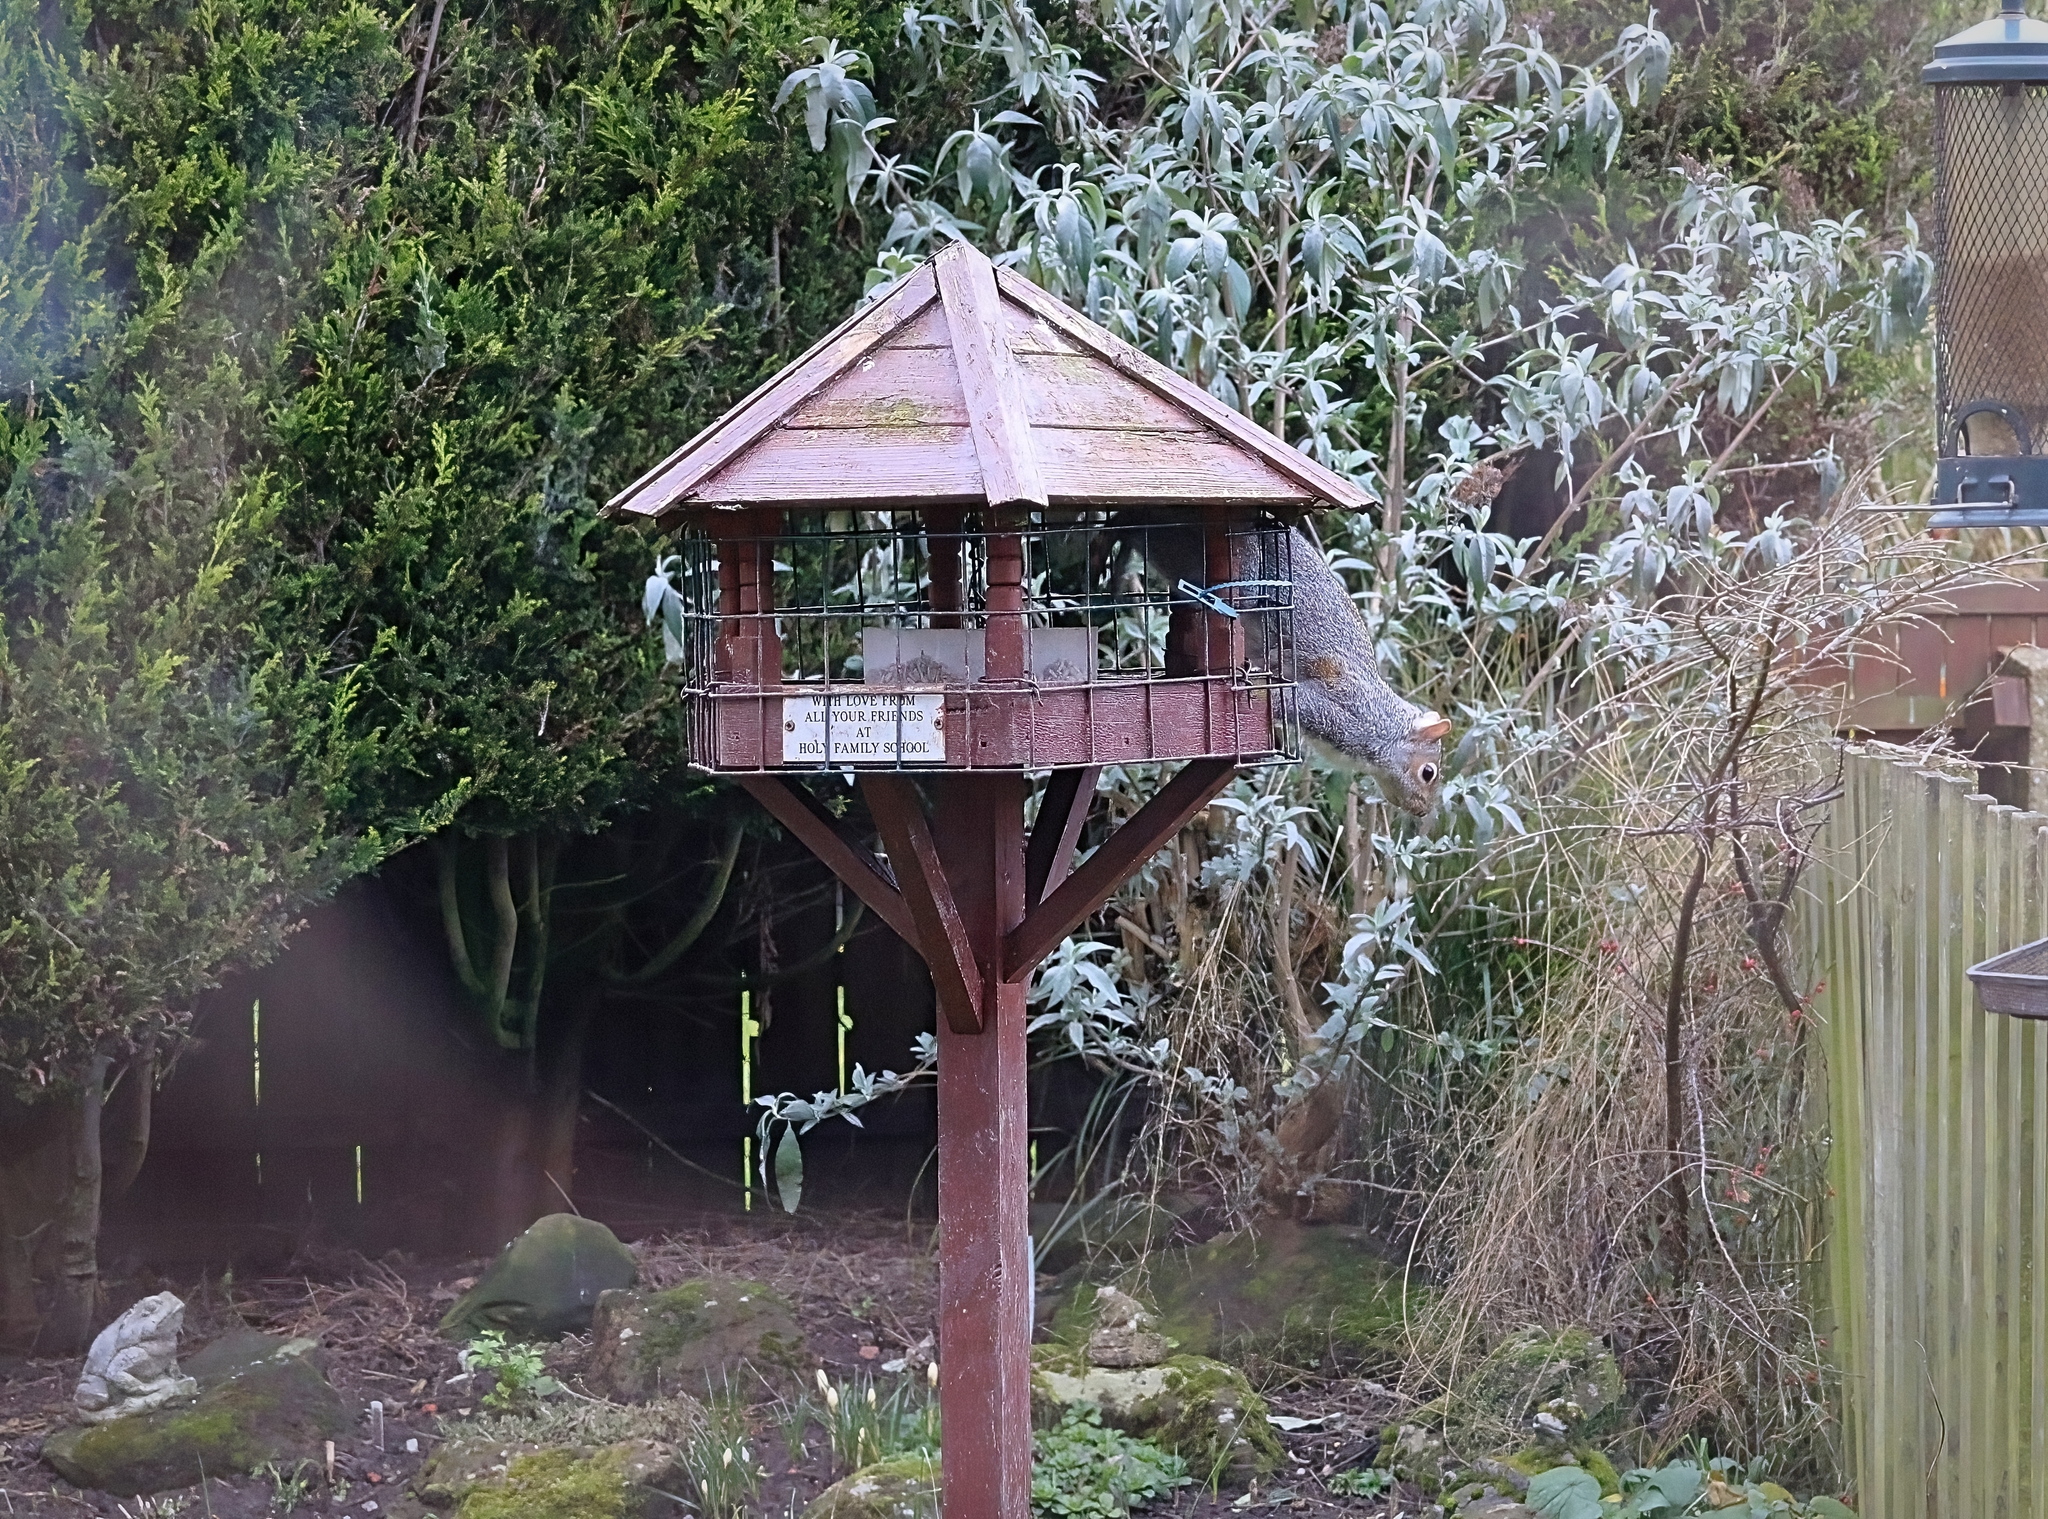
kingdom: Animalia
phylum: Chordata
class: Mammalia
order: Rodentia
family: Sciuridae
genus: Sciurus
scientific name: Sciurus carolinensis
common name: Eastern gray squirrel
